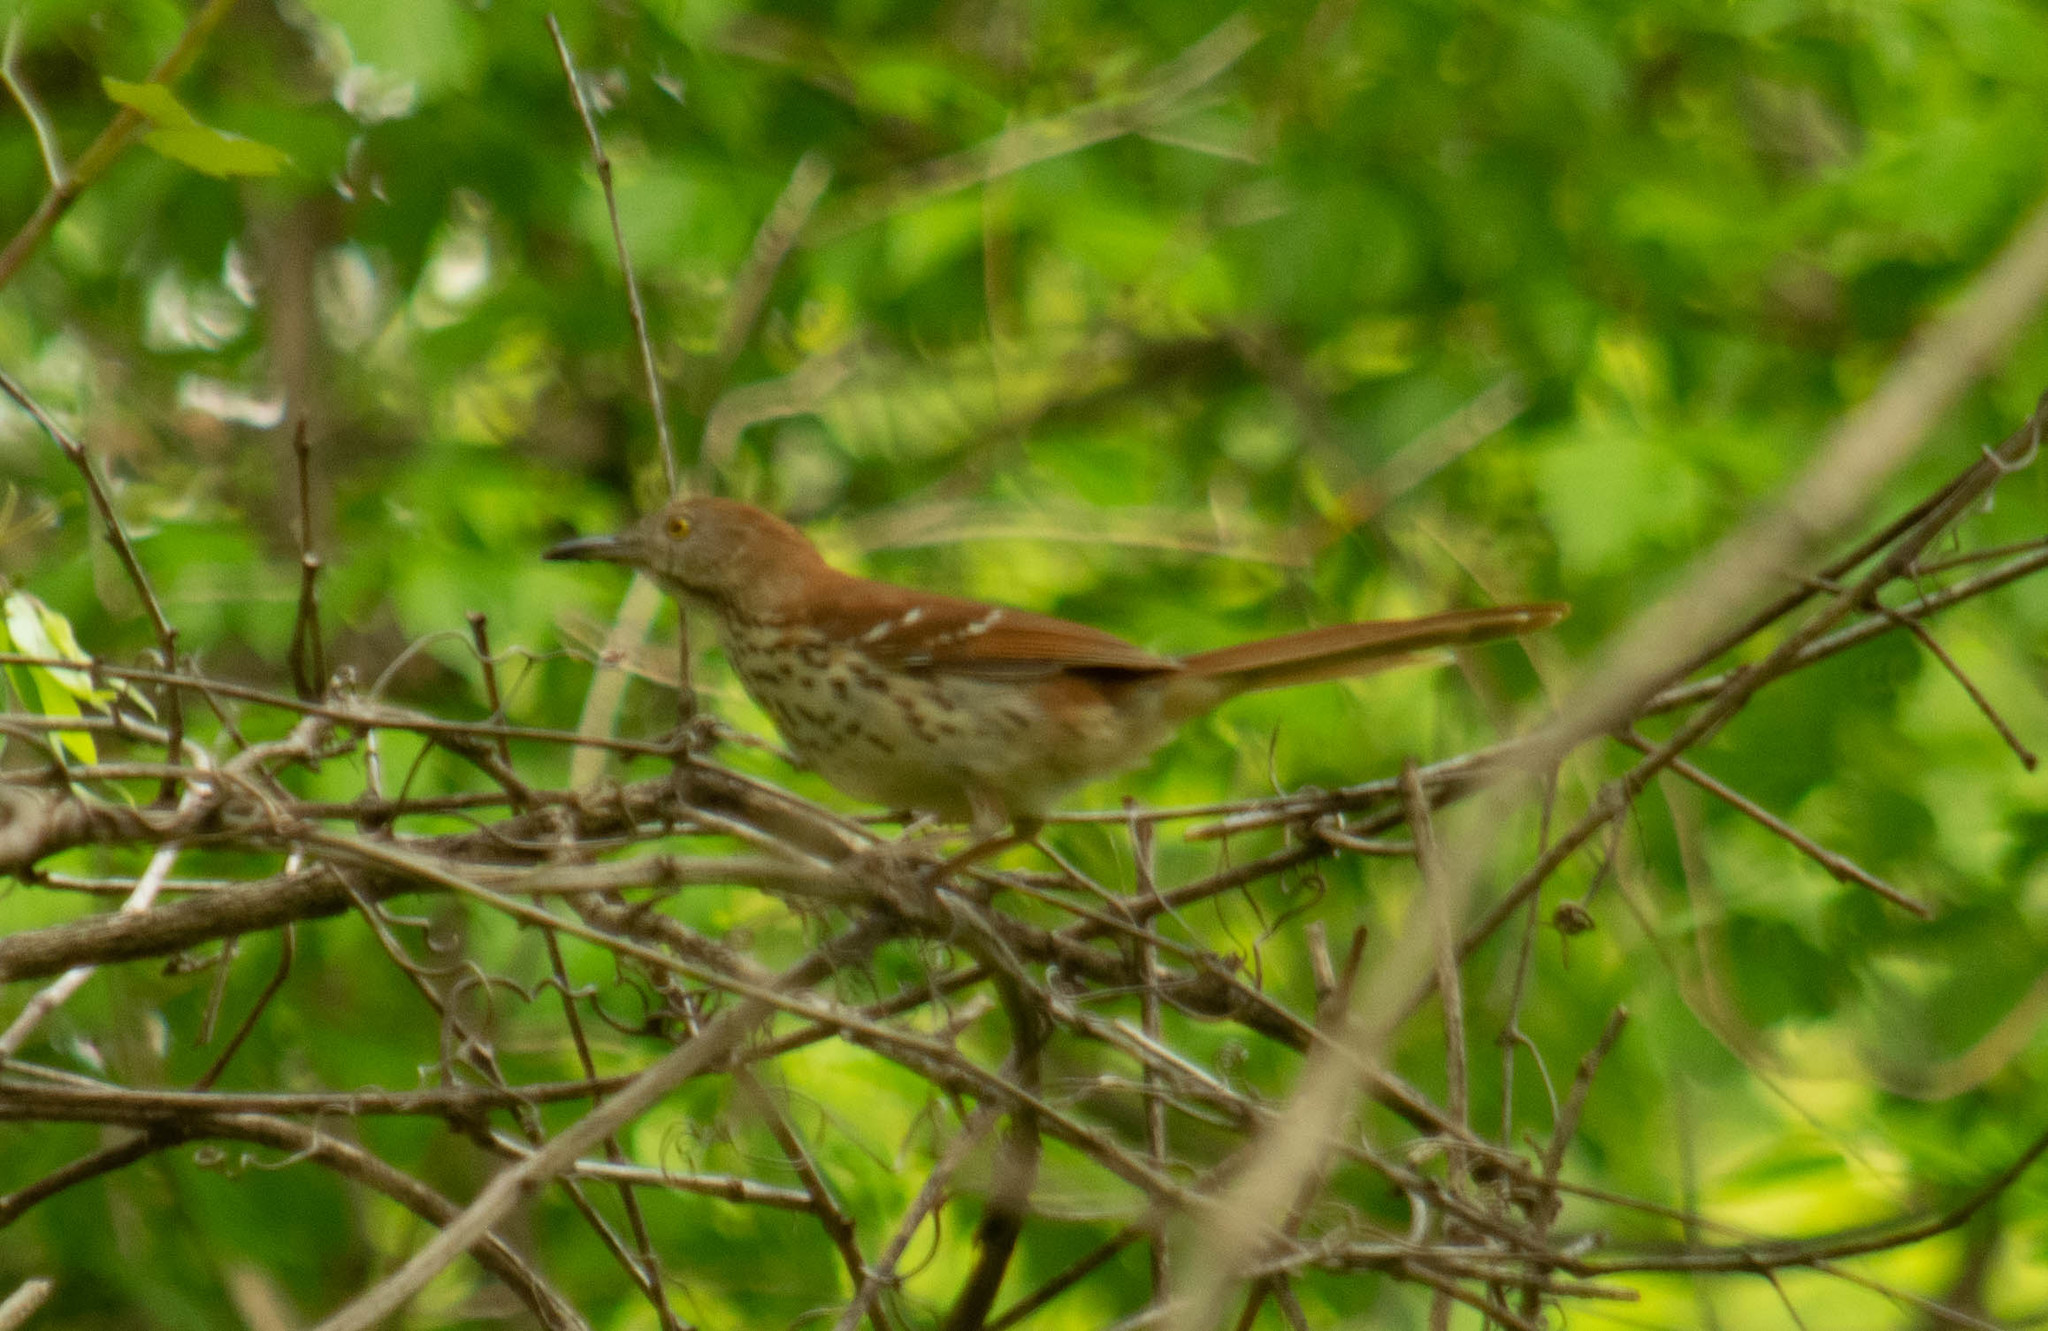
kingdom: Animalia
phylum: Chordata
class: Aves
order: Passeriformes
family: Mimidae
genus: Toxostoma
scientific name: Toxostoma rufum
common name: Brown thrasher
